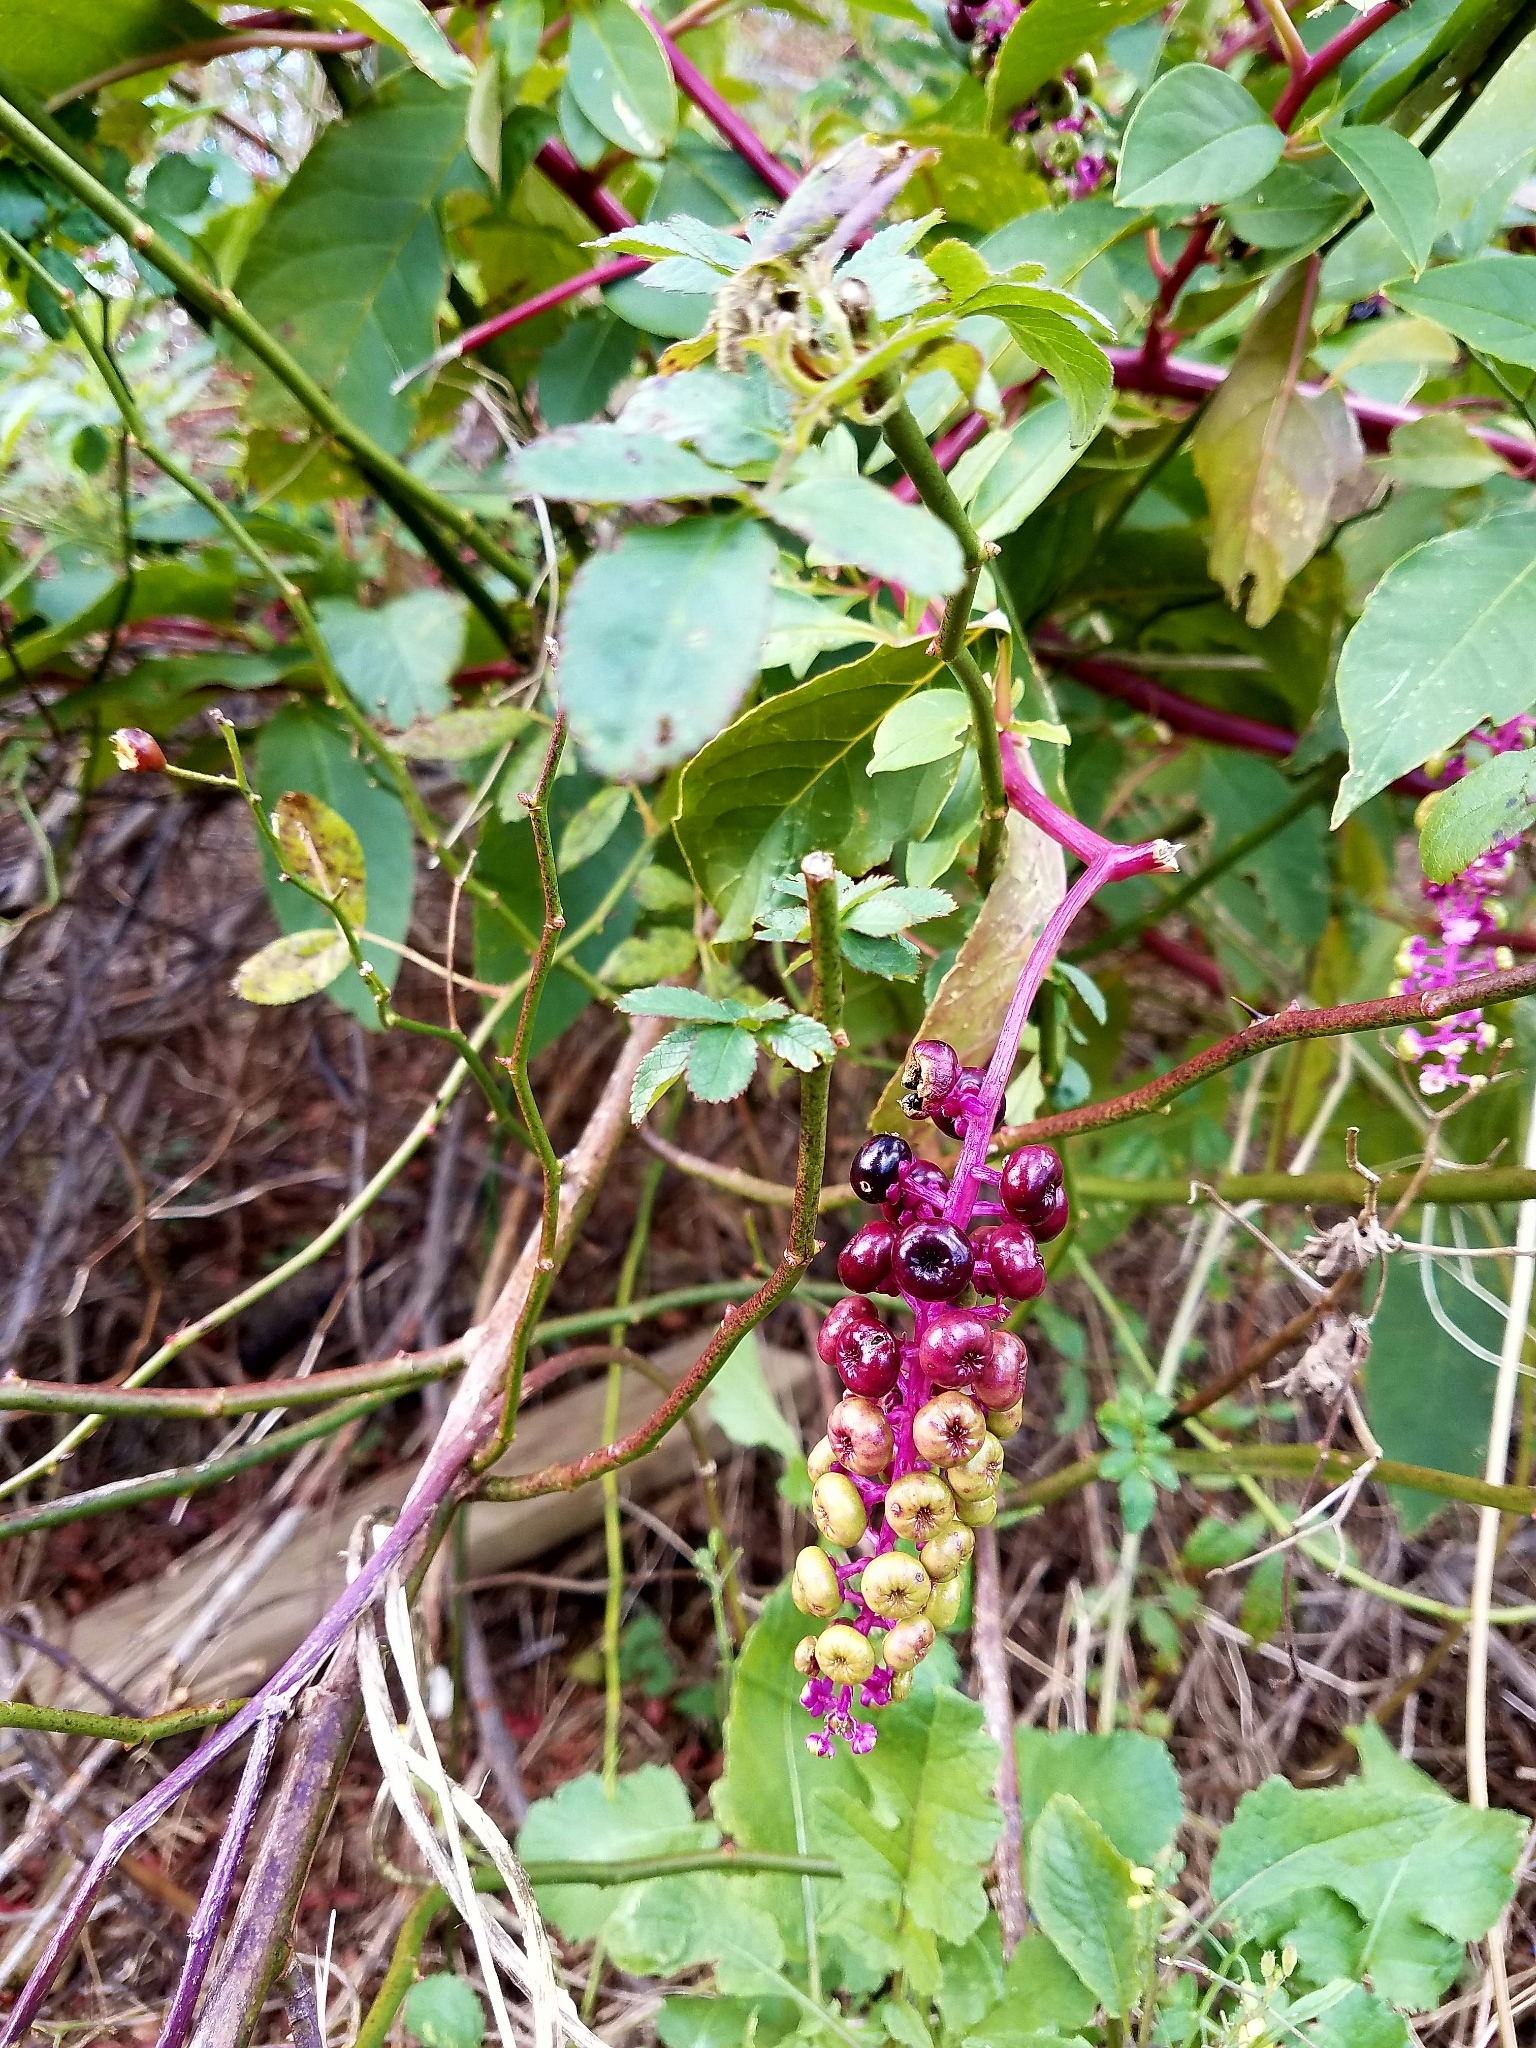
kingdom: Plantae
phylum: Tracheophyta
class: Magnoliopsida
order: Caryophyllales
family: Phytolaccaceae
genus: Phytolacca
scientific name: Phytolacca americana
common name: American pokeweed
